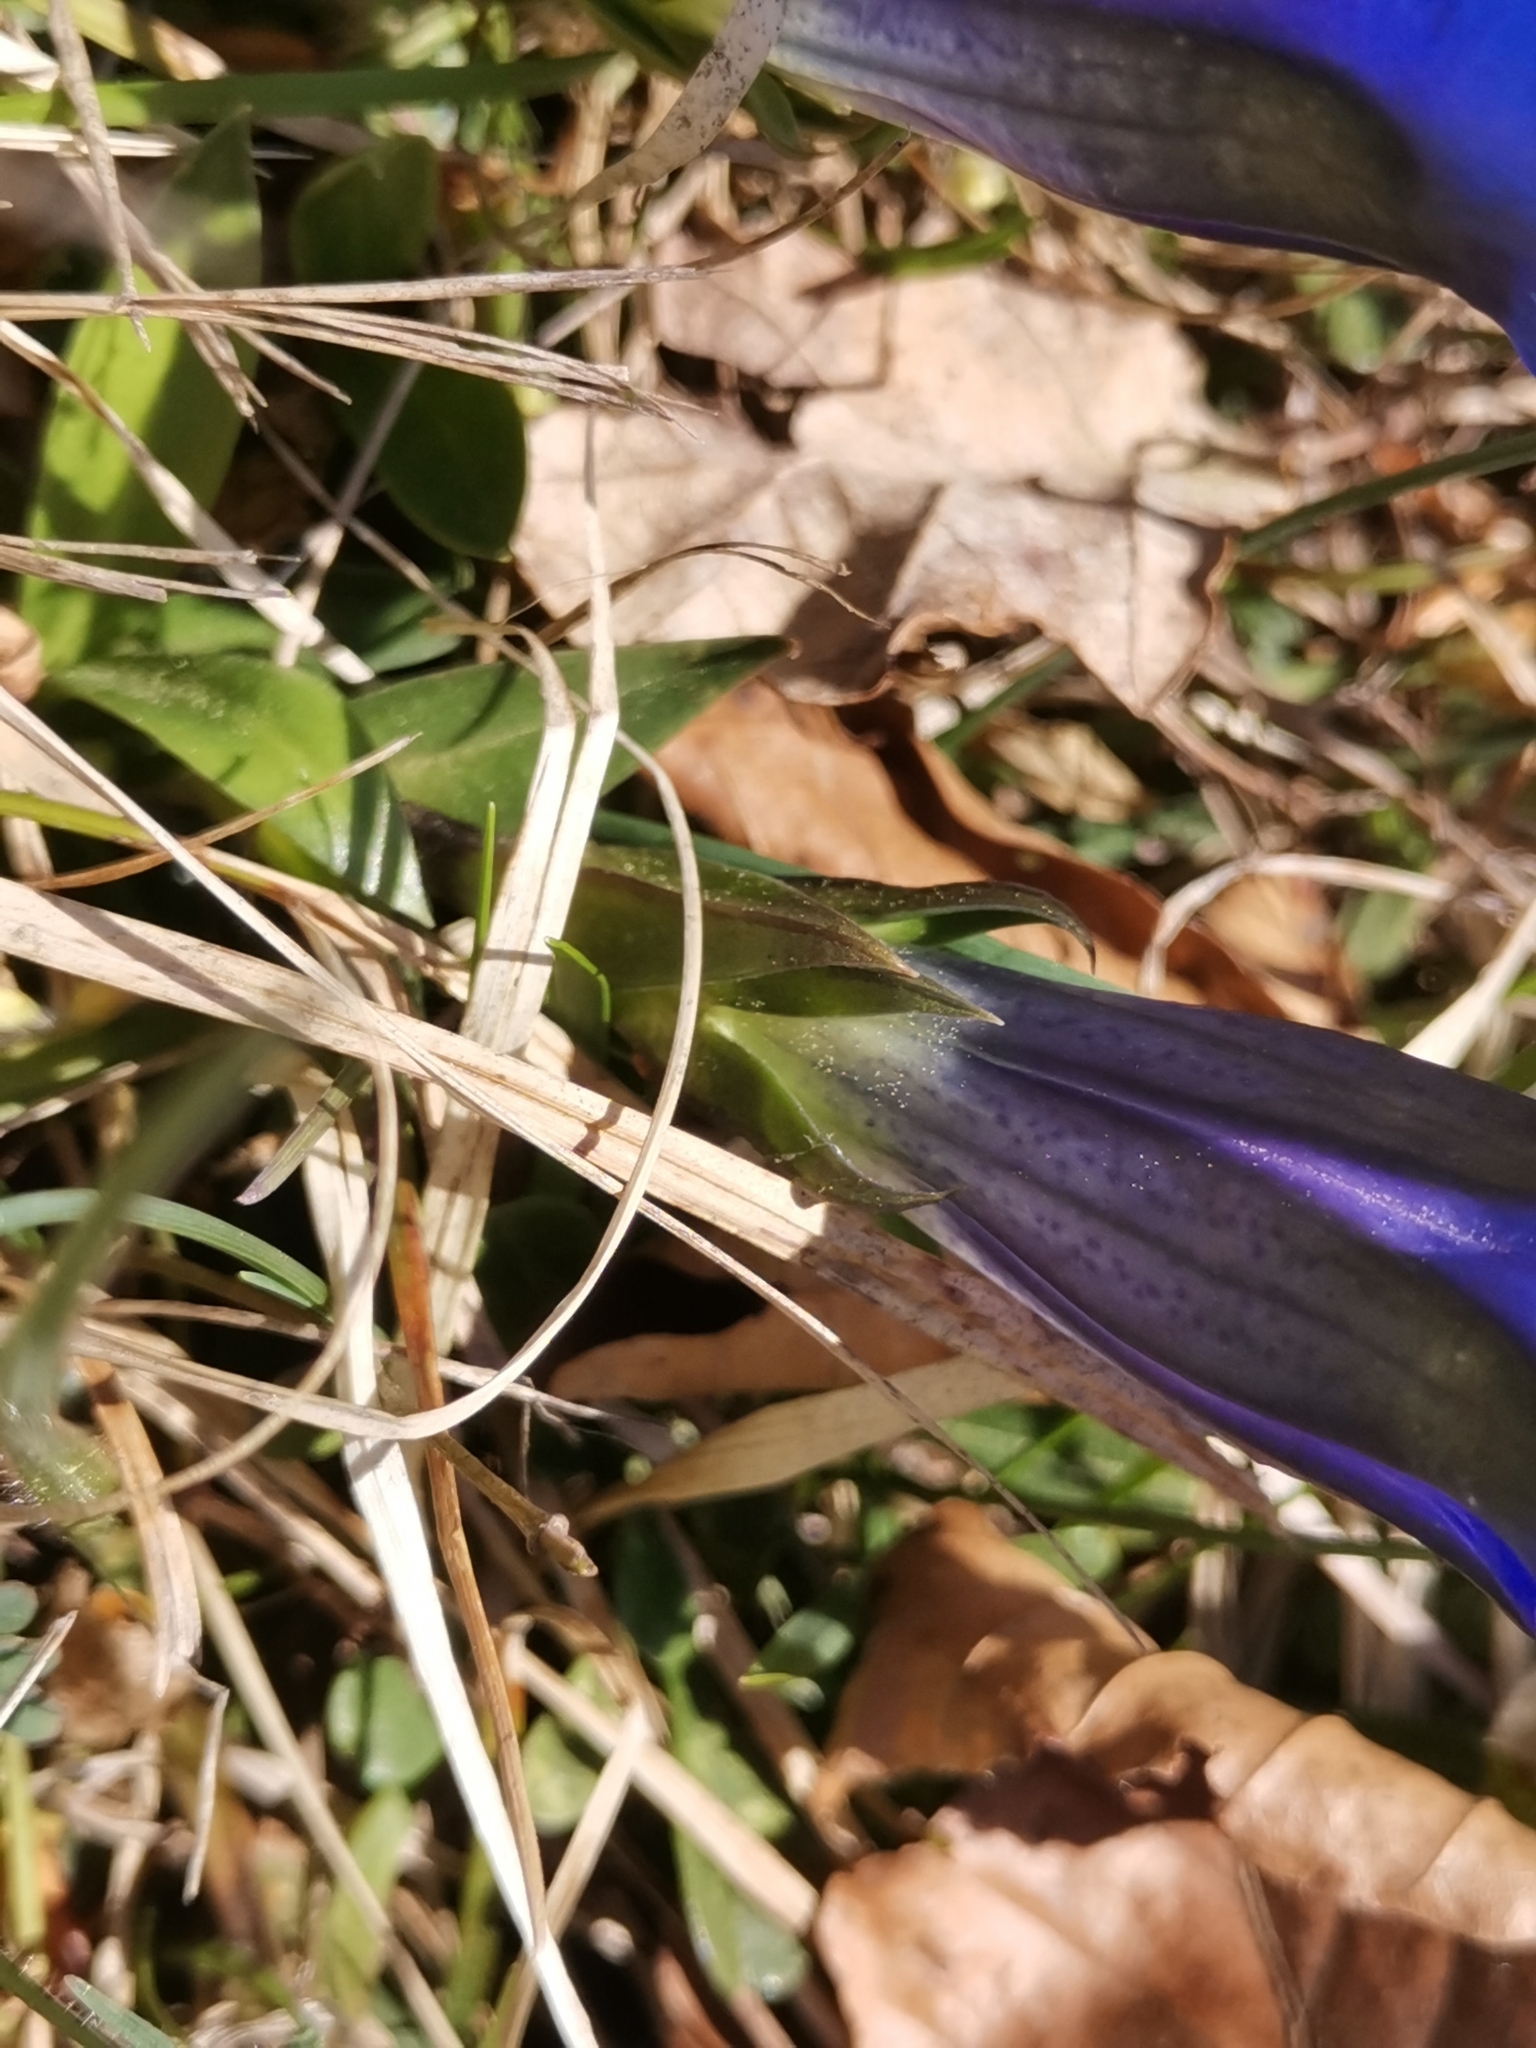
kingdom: Plantae
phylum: Tracheophyta
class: Magnoliopsida
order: Gentianales
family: Gentianaceae
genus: Gentiana
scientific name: Gentiana clusii
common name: Trumpet gentian
